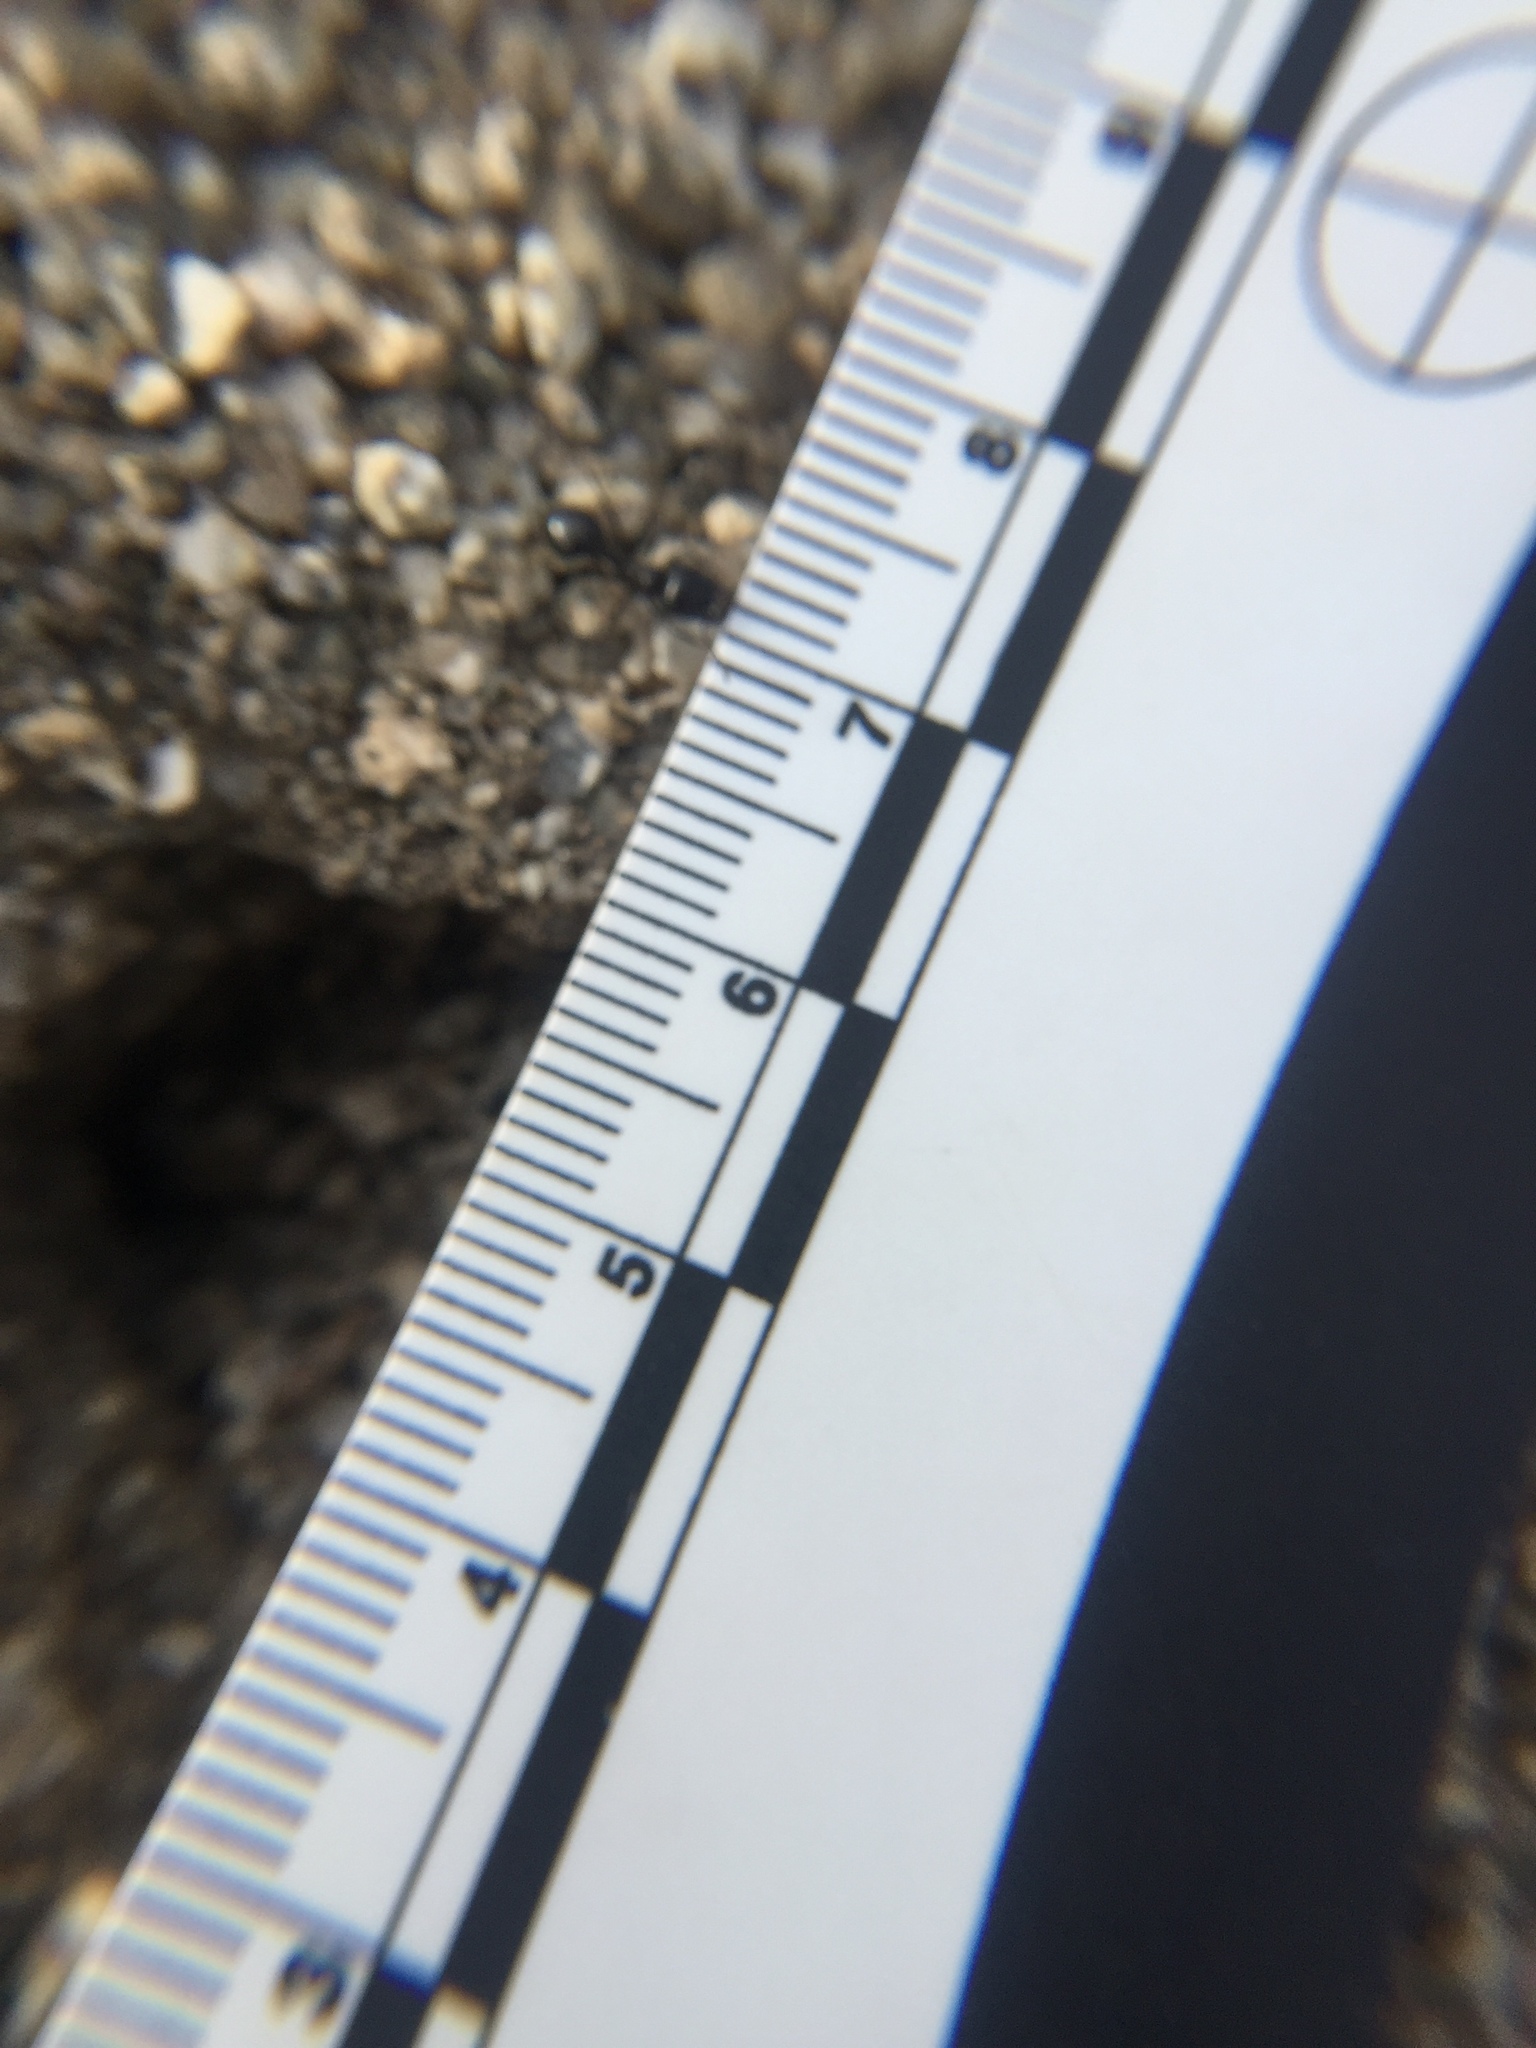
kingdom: Animalia
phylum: Arthropoda
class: Insecta
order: Hymenoptera
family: Formicidae
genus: Messor
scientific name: Messor pergandei
